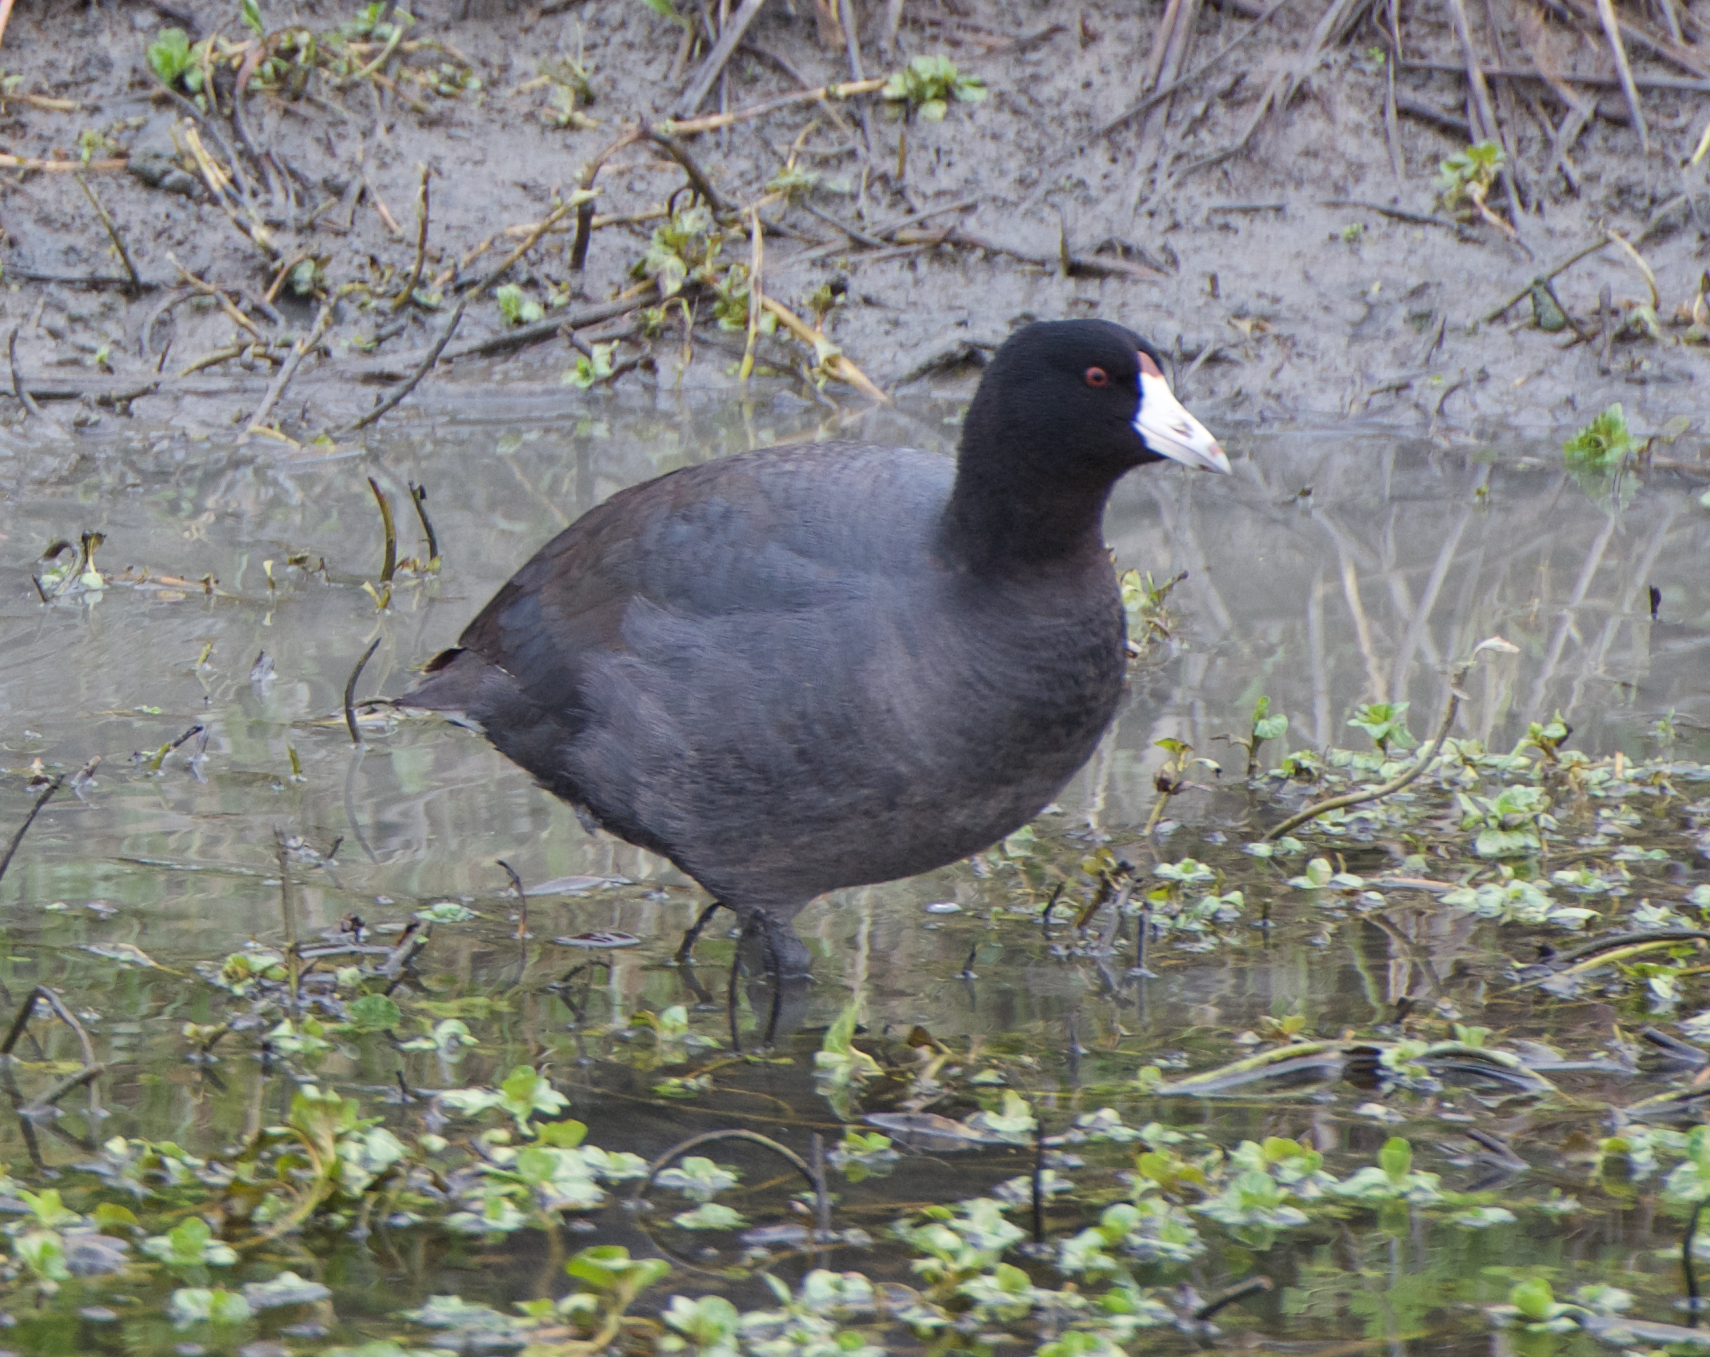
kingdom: Animalia
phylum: Chordata
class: Aves
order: Gruiformes
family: Rallidae
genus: Fulica
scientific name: Fulica americana
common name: American coot
